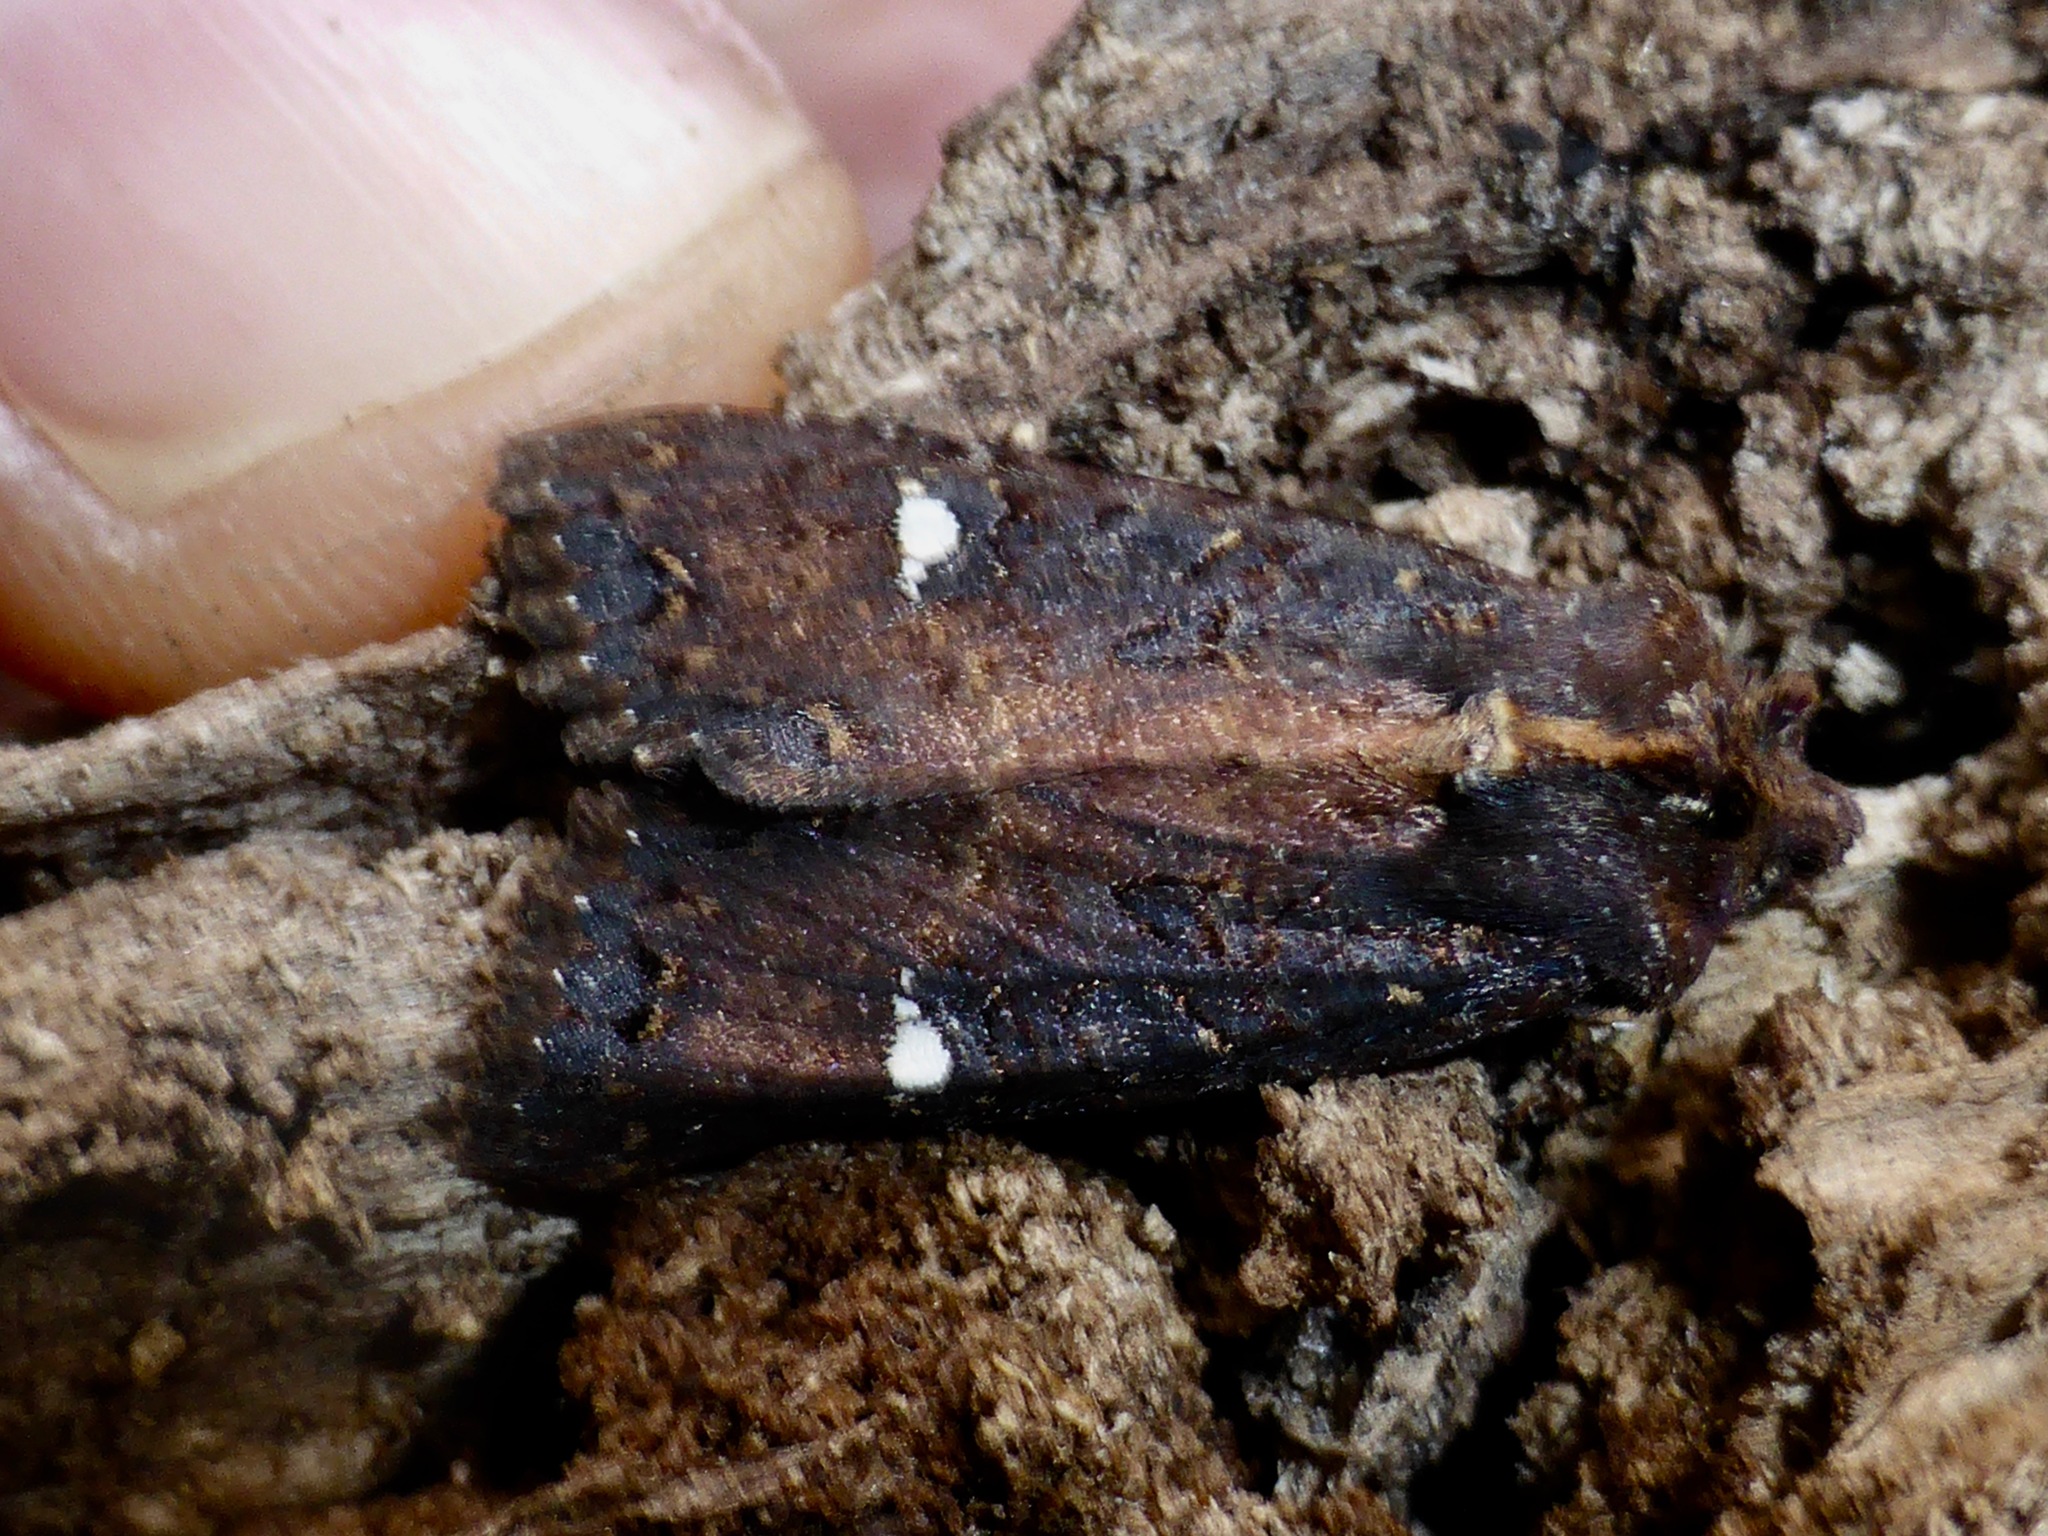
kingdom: Animalia
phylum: Arthropoda
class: Insecta
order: Lepidoptera
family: Noctuidae
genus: Meterana
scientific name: Meterana vitiosa
